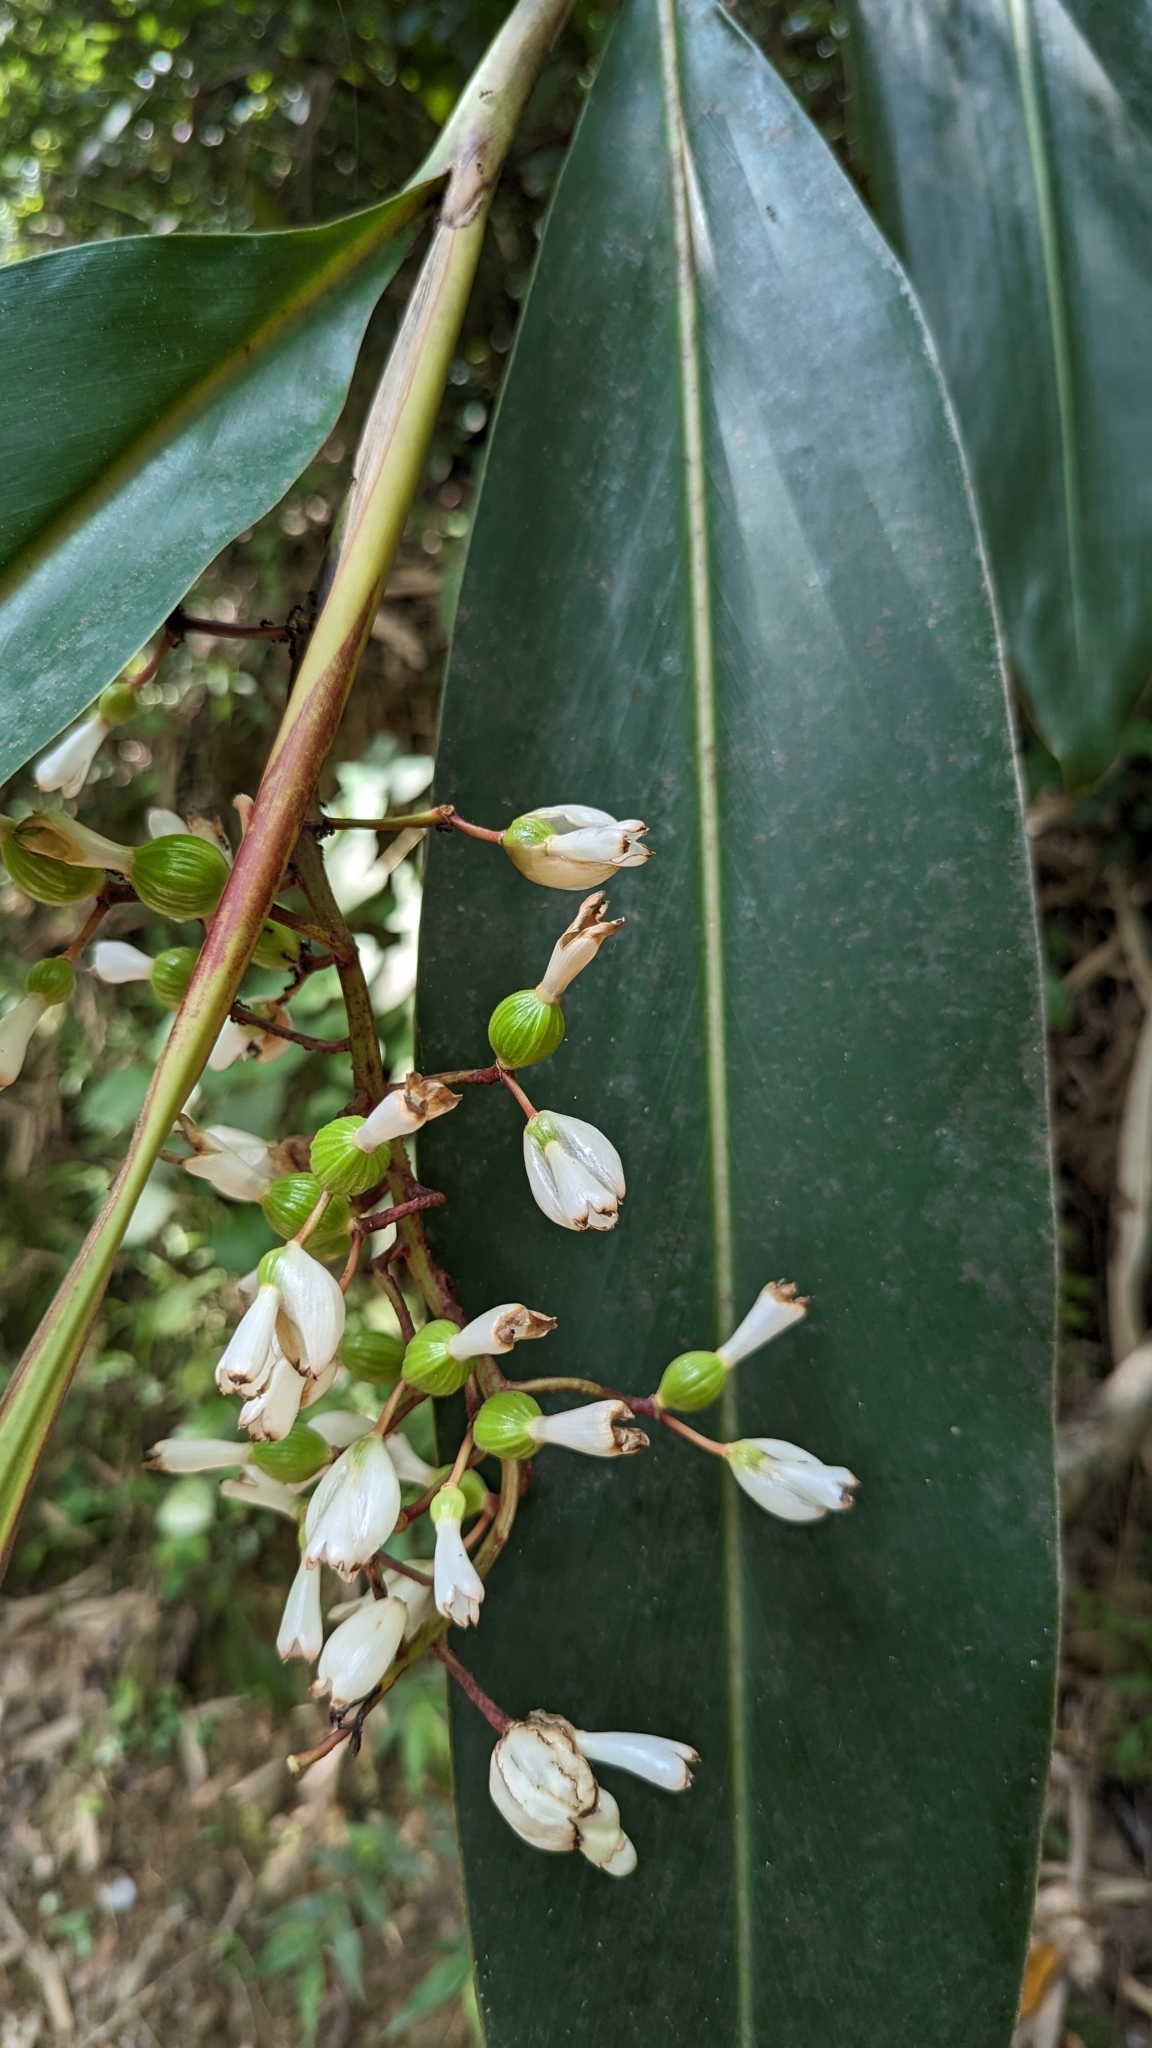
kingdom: Plantae
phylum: Tracheophyta
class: Liliopsida
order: Zingiberales
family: Zingiberaceae
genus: Alpinia
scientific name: Alpinia zerumbet
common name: Shellplant
